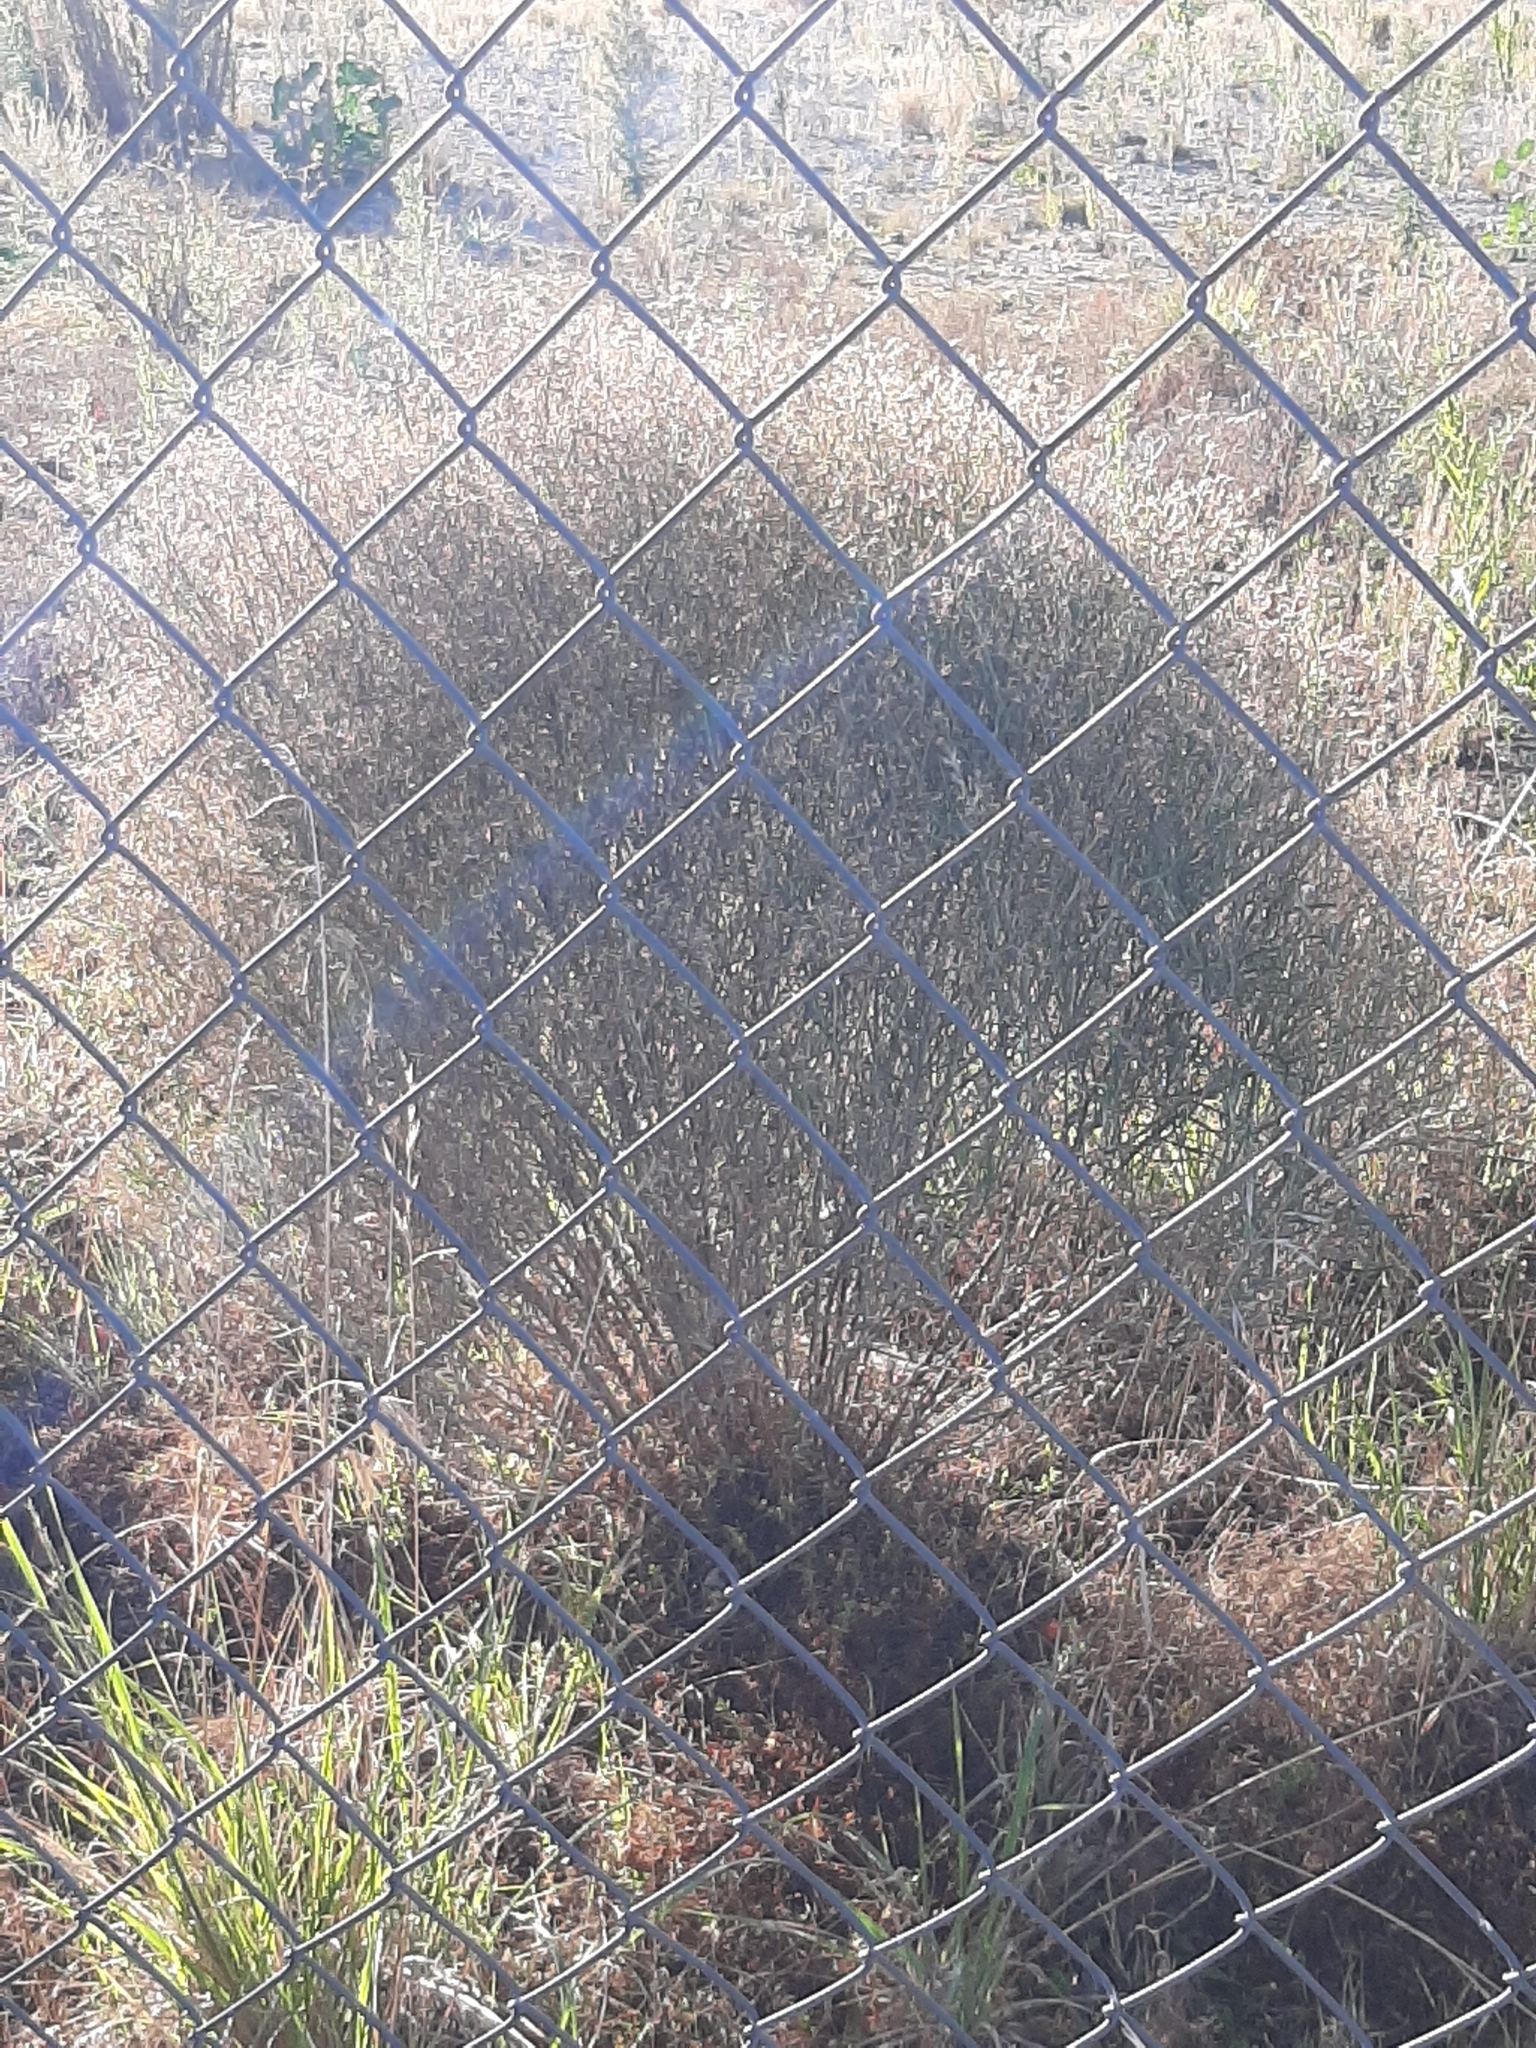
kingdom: Plantae
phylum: Tracheophyta
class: Magnoliopsida
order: Asterales
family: Asteraceae
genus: Senecio
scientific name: Senecio quadridentatus
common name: Cotton fireweed
